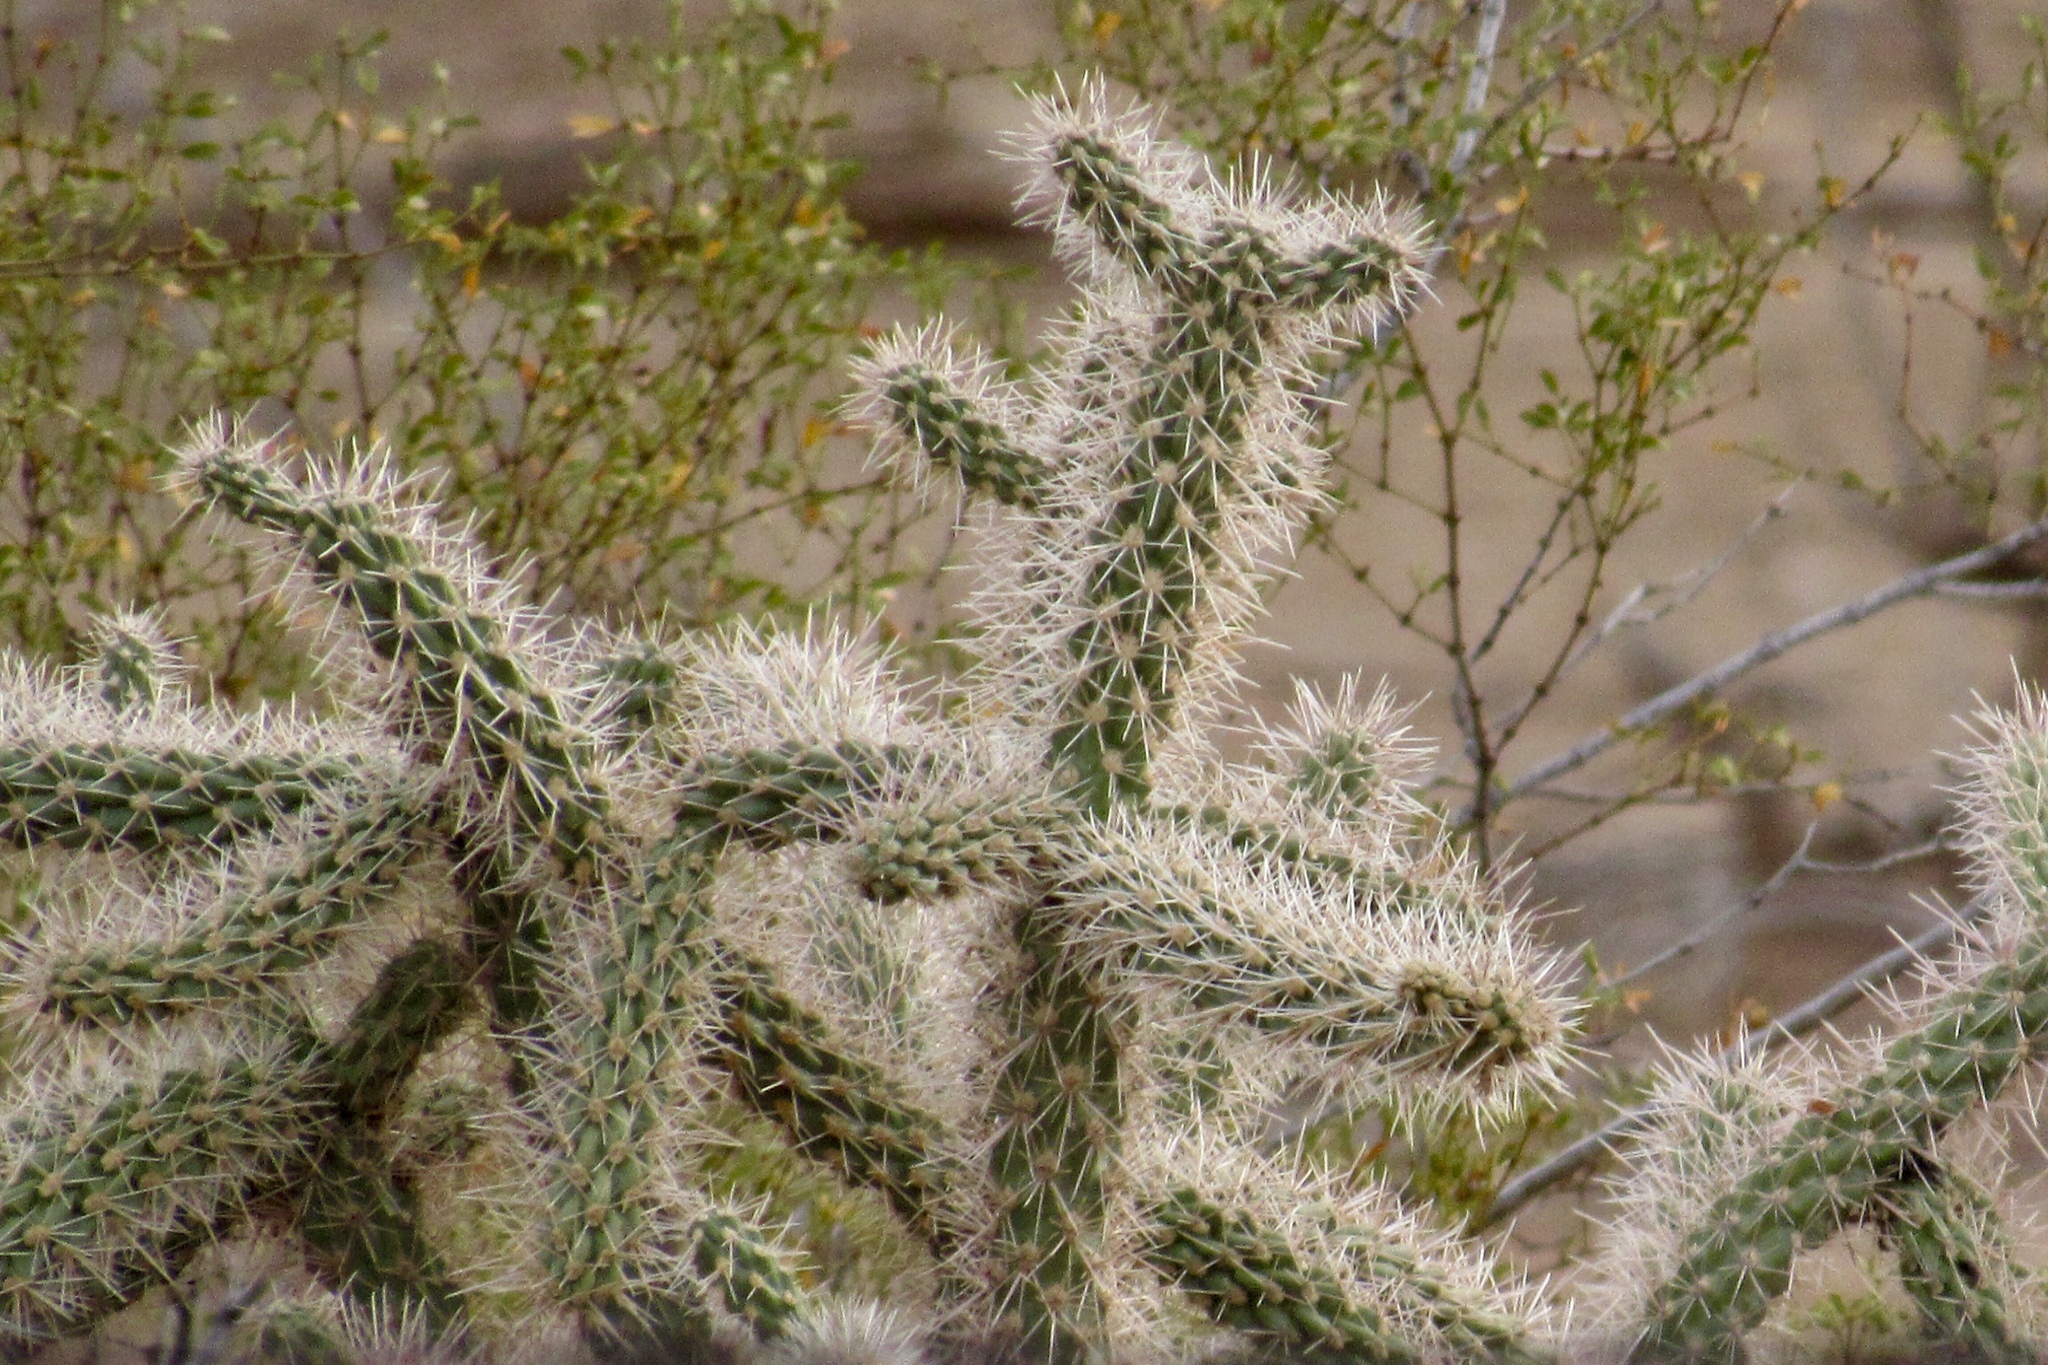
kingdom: Plantae
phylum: Tracheophyta
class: Magnoliopsida
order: Caryophyllales
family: Cactaceae
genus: Cylindropuntia
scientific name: Cylindropuntia imbricata
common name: Candelabrum cactus
